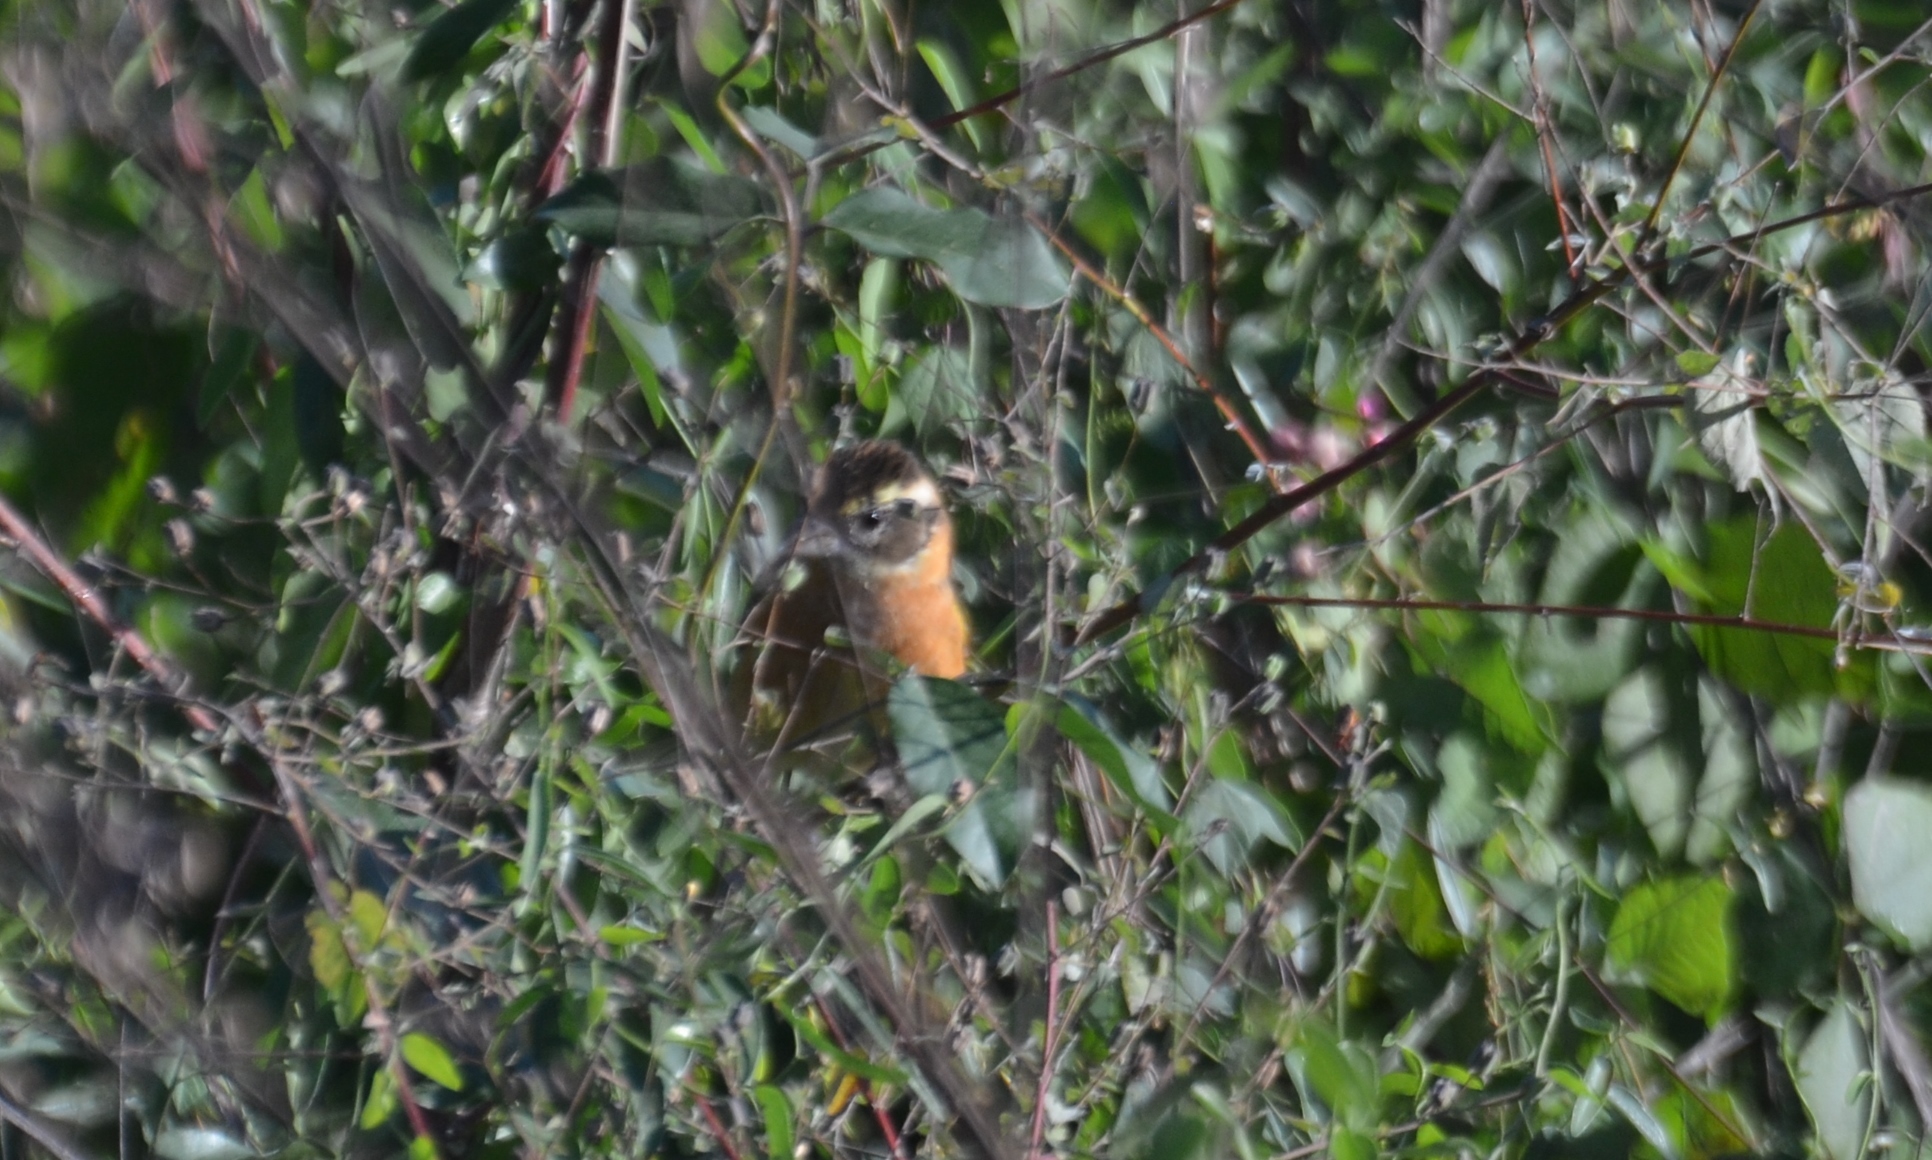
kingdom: Animalia
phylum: Chordata
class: Aves
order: Passeriformes
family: Cardinalidae
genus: Pheucticus
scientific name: Pheucticus melanocephalus
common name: Black-headed grosbeak
